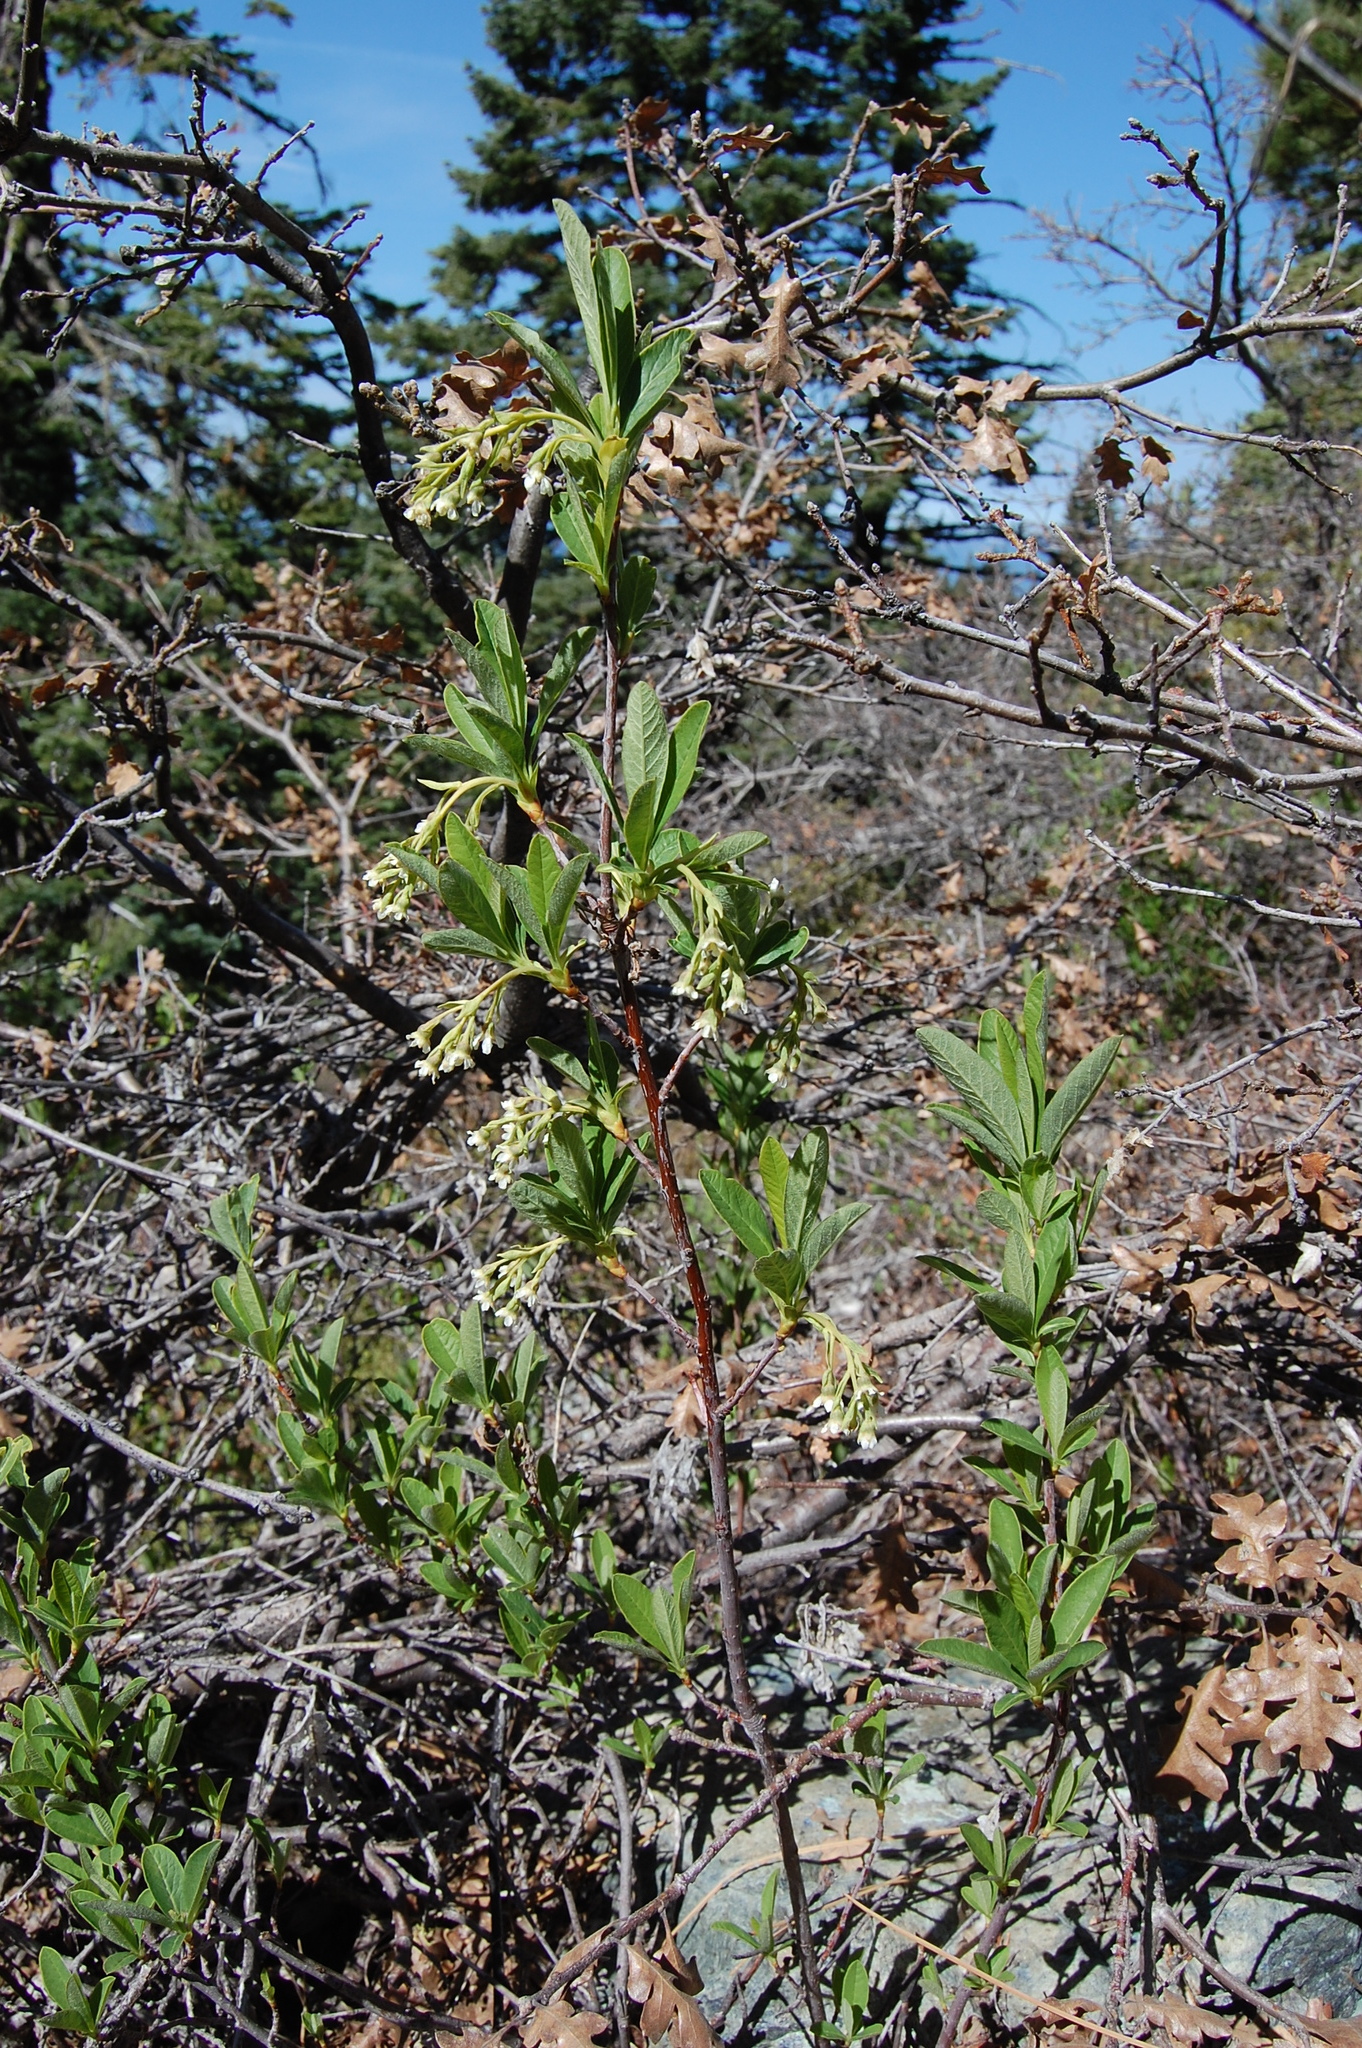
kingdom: Plantae
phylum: Tracheophyta
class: Magnoliopsida
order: Rosales
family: Rosaceae
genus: Oemleria
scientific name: Oemleria cerasiformis
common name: Osoberry
